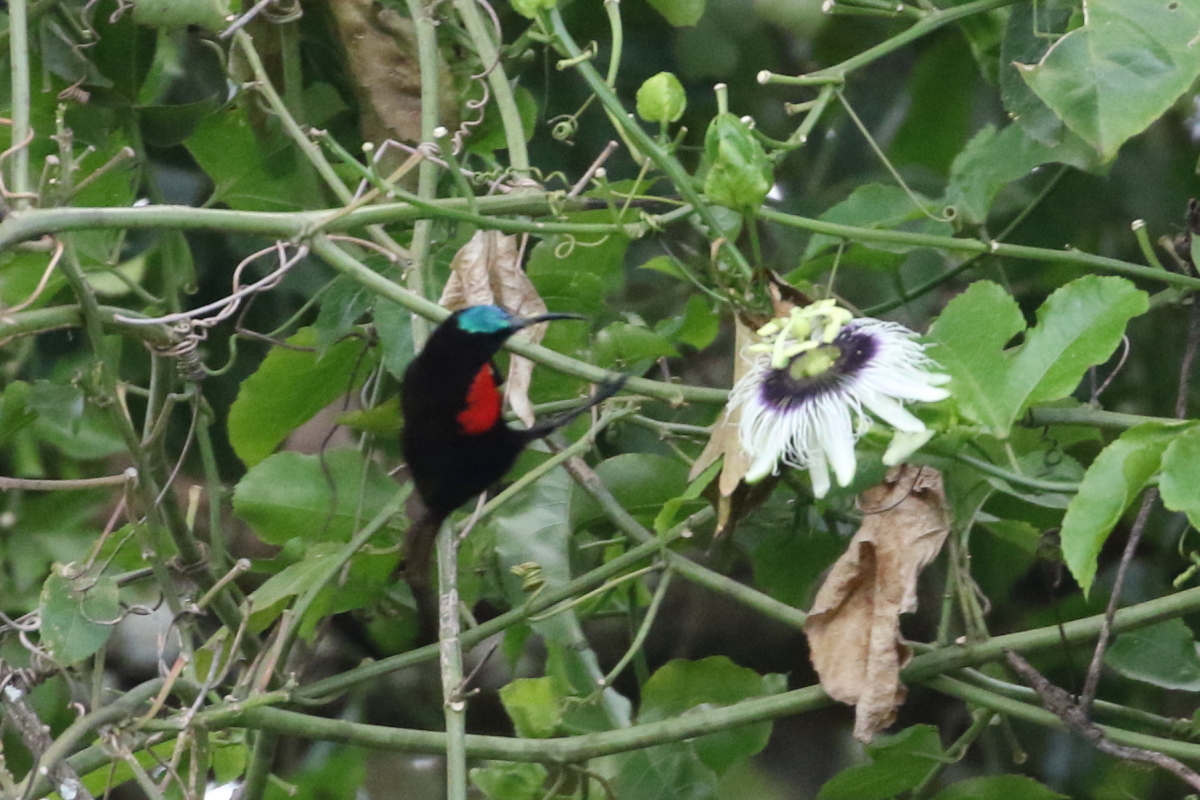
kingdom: Animalia
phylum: Chordata
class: Aves
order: Passeriformes
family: Nectariniidae
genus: Chalcomitra
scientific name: Chalcomitra senegalensis
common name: Scarlet-chested sunbird
